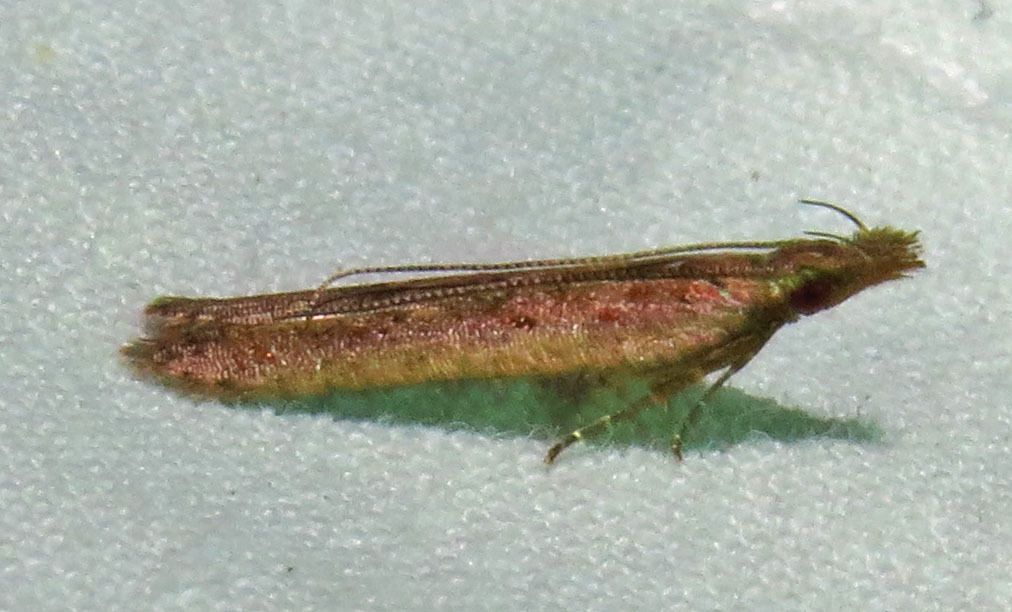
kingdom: Animalia
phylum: Arthropoda
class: Insecta
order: Lepidoptera
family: Gelechiidae
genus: Dichomeris
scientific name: Dichomeris ligulella
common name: Moth
